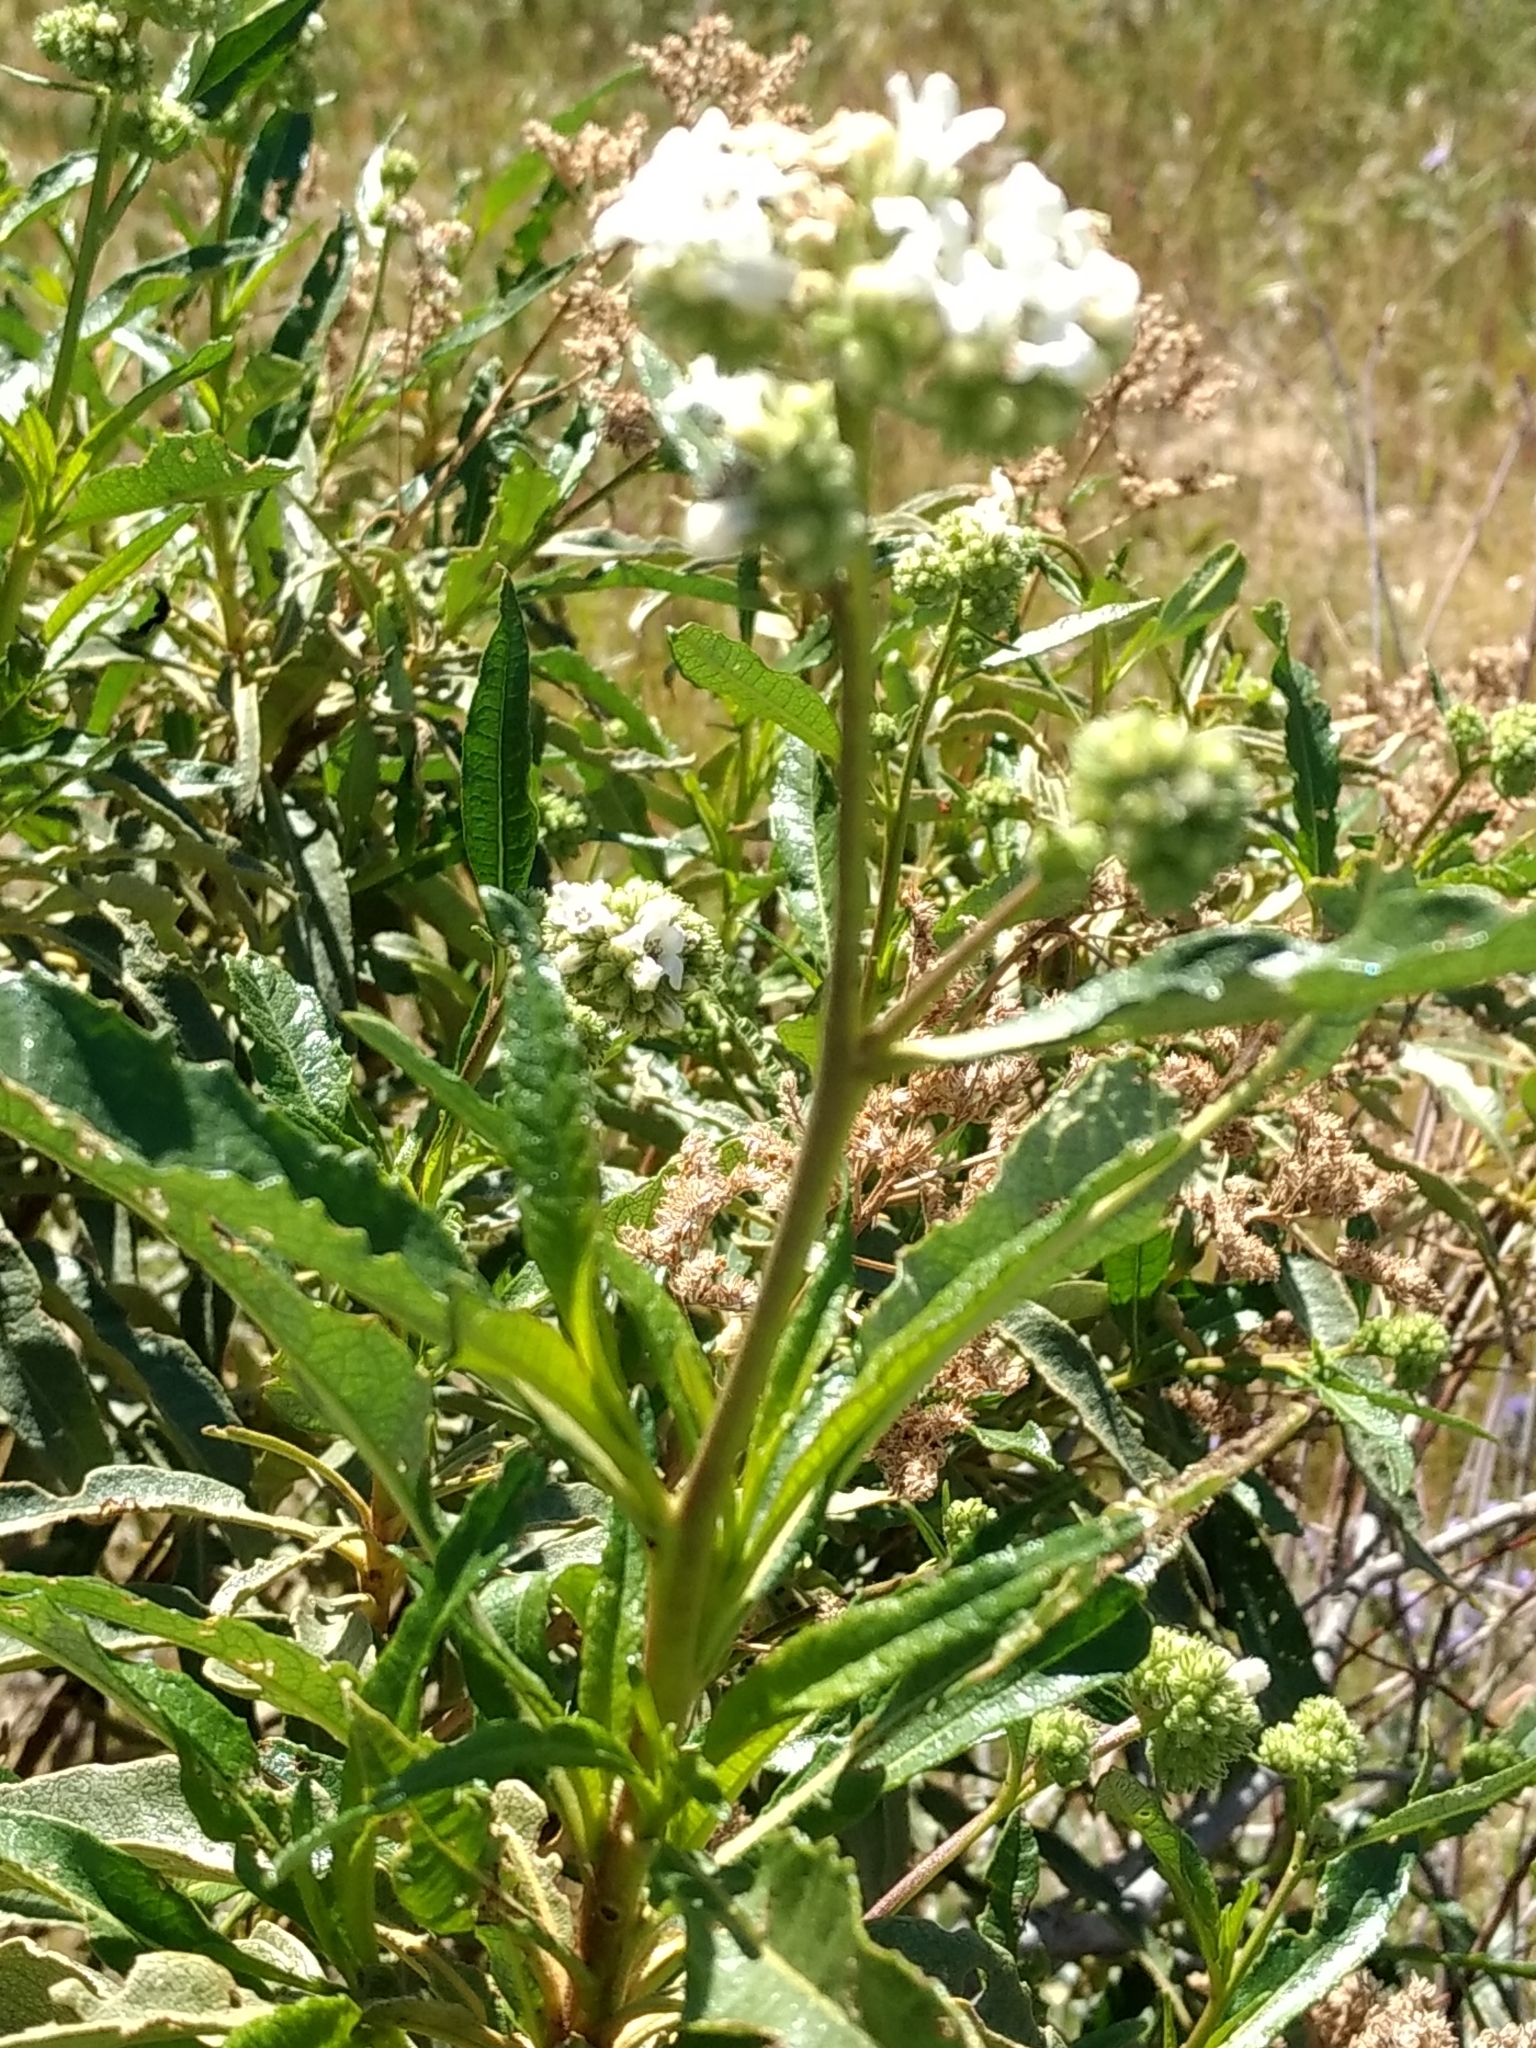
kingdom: Plantae
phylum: Tracheophyta
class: Magnoliopsida
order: Boraginales
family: Namaceae
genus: Eriodictyon
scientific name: Eriodictyon trichocalyx
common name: Hairy yerba-santa
